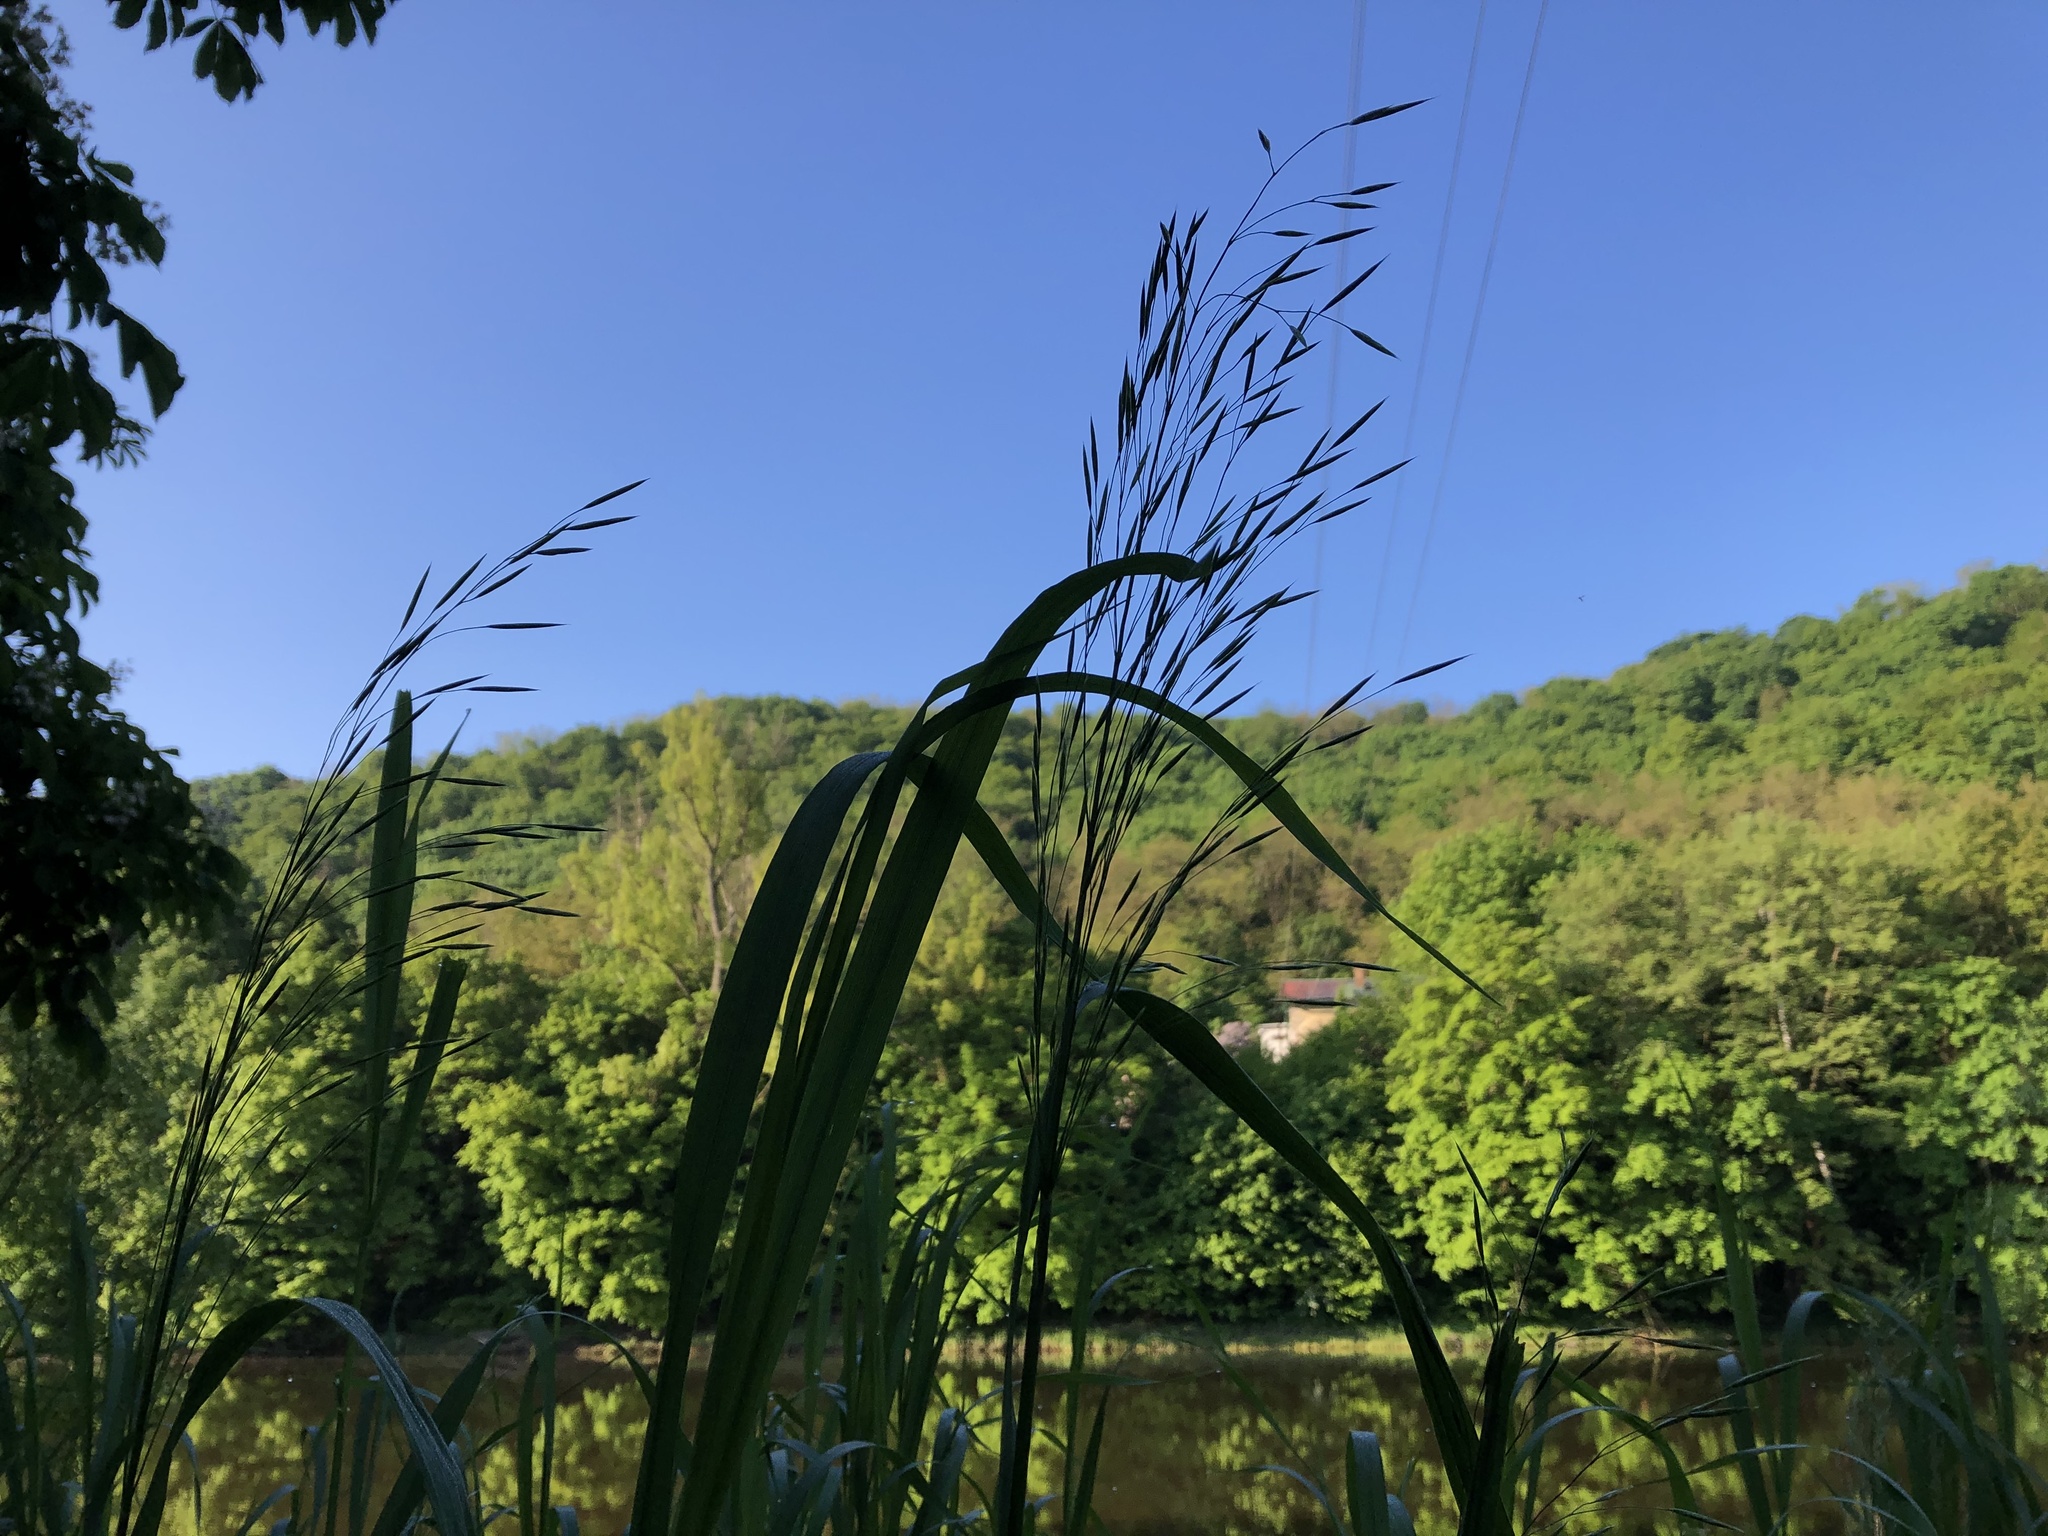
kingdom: Plantae
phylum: Tracheophyta
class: Liliopsida
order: Poales
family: Poaceae
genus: Bromus
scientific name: Bromus inermis
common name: Smooth brome
